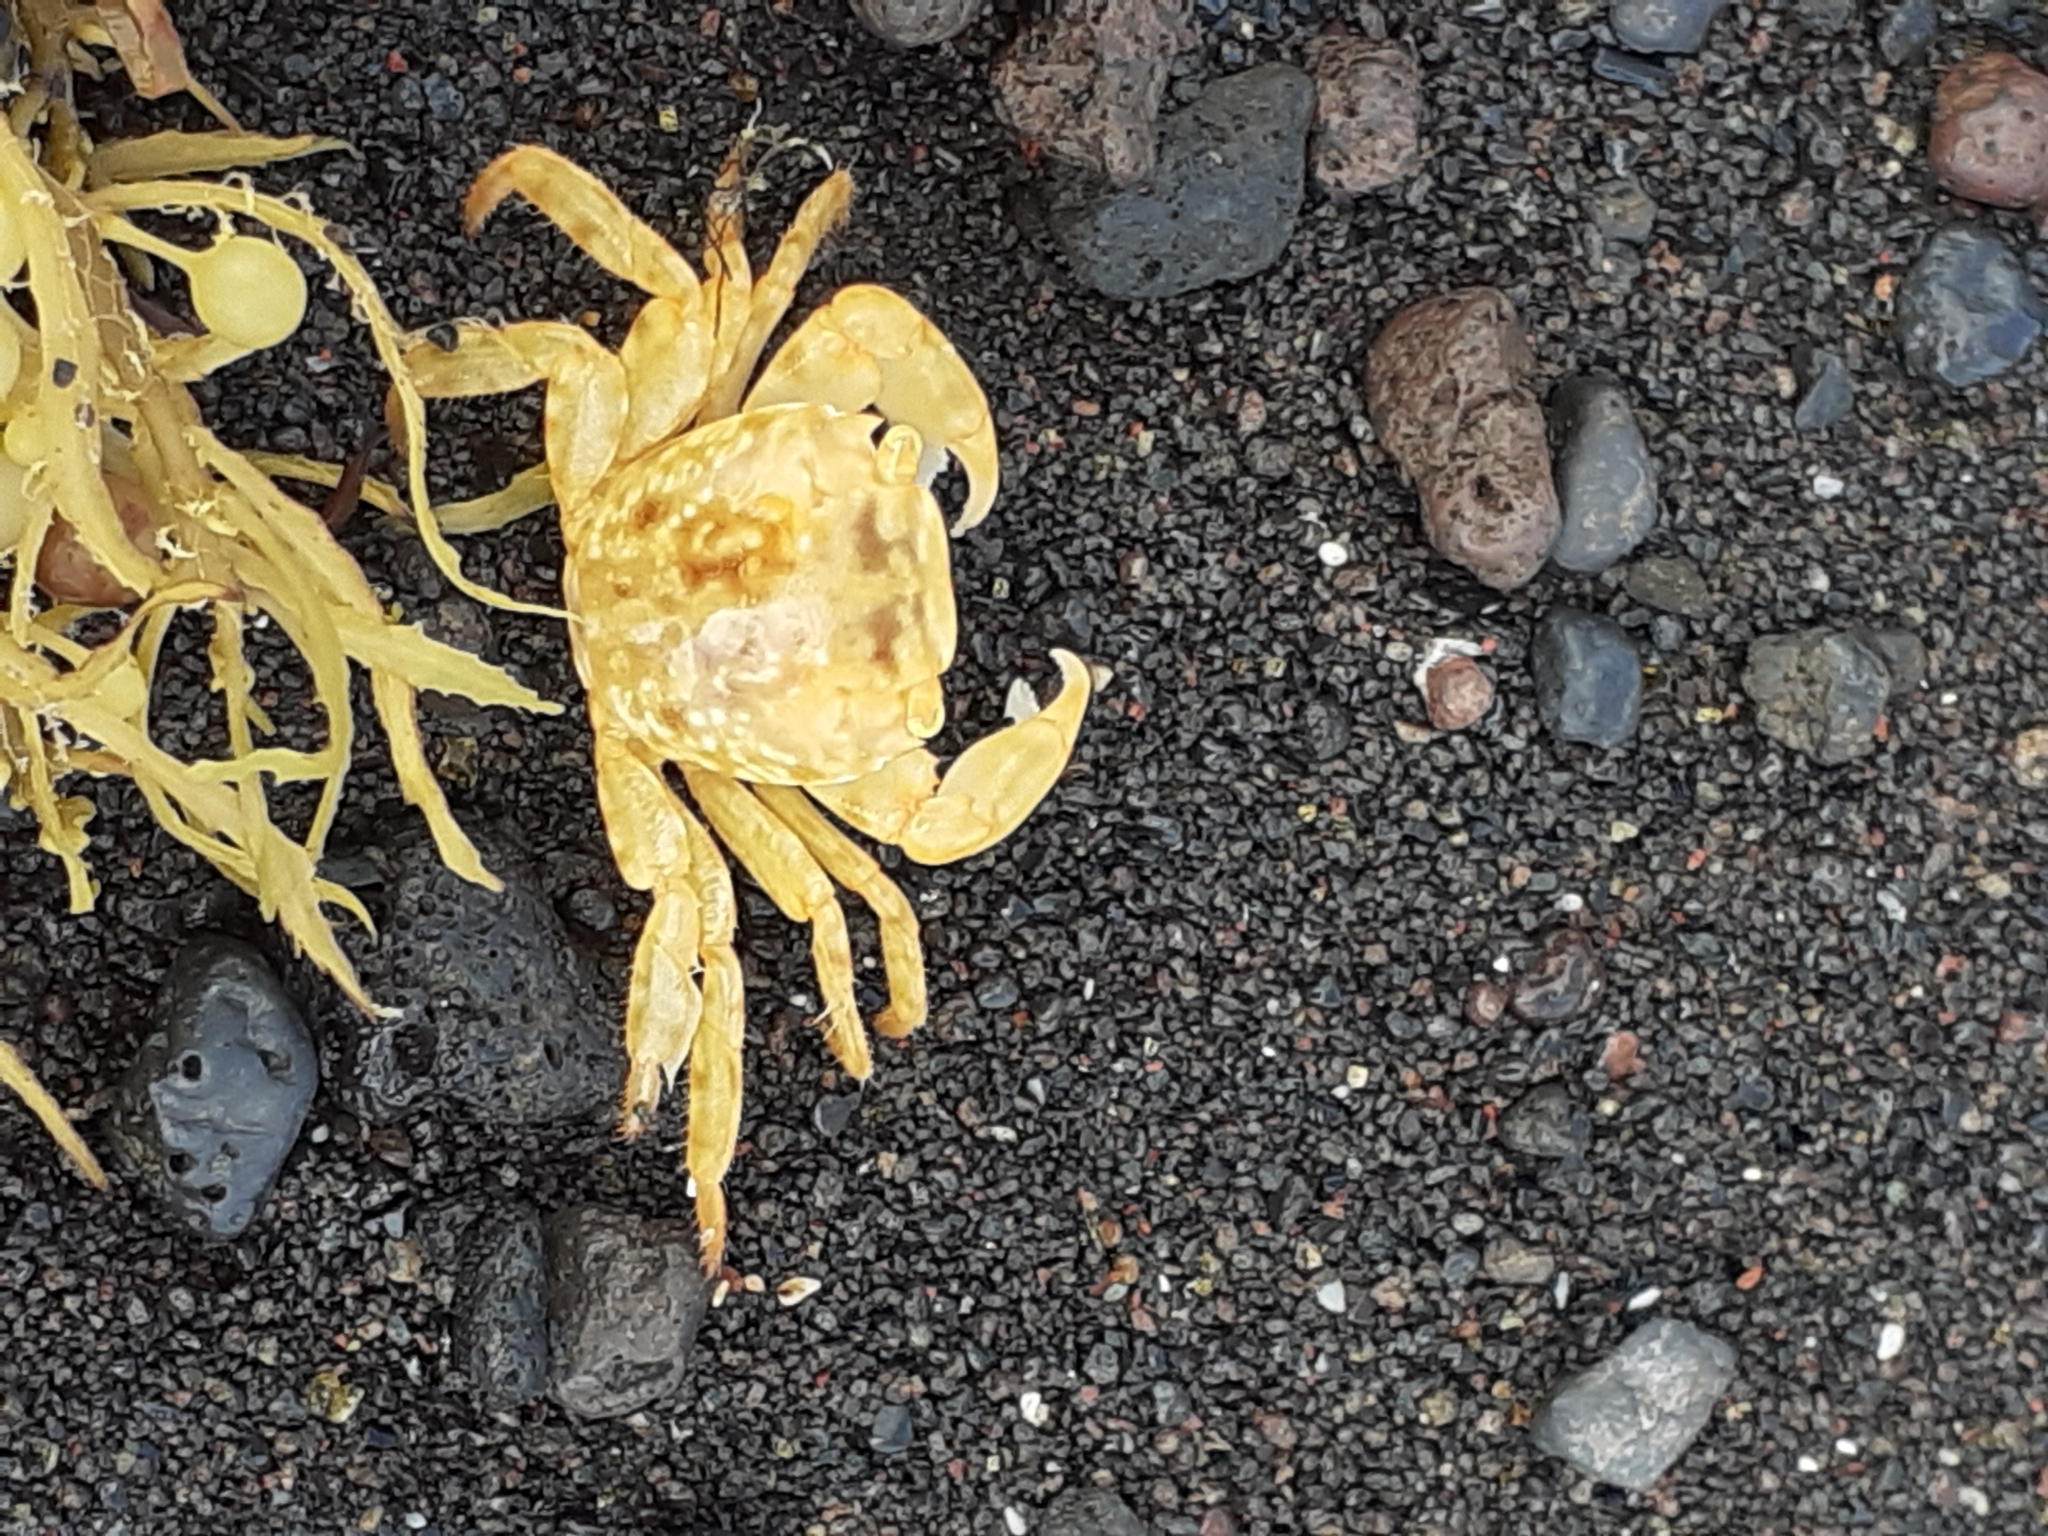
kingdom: Animalia
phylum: Arthropoda
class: Malacostraca
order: Decapoda
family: Grapsidae
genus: Planes
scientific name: Planes minutus
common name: Gulf weed crab
